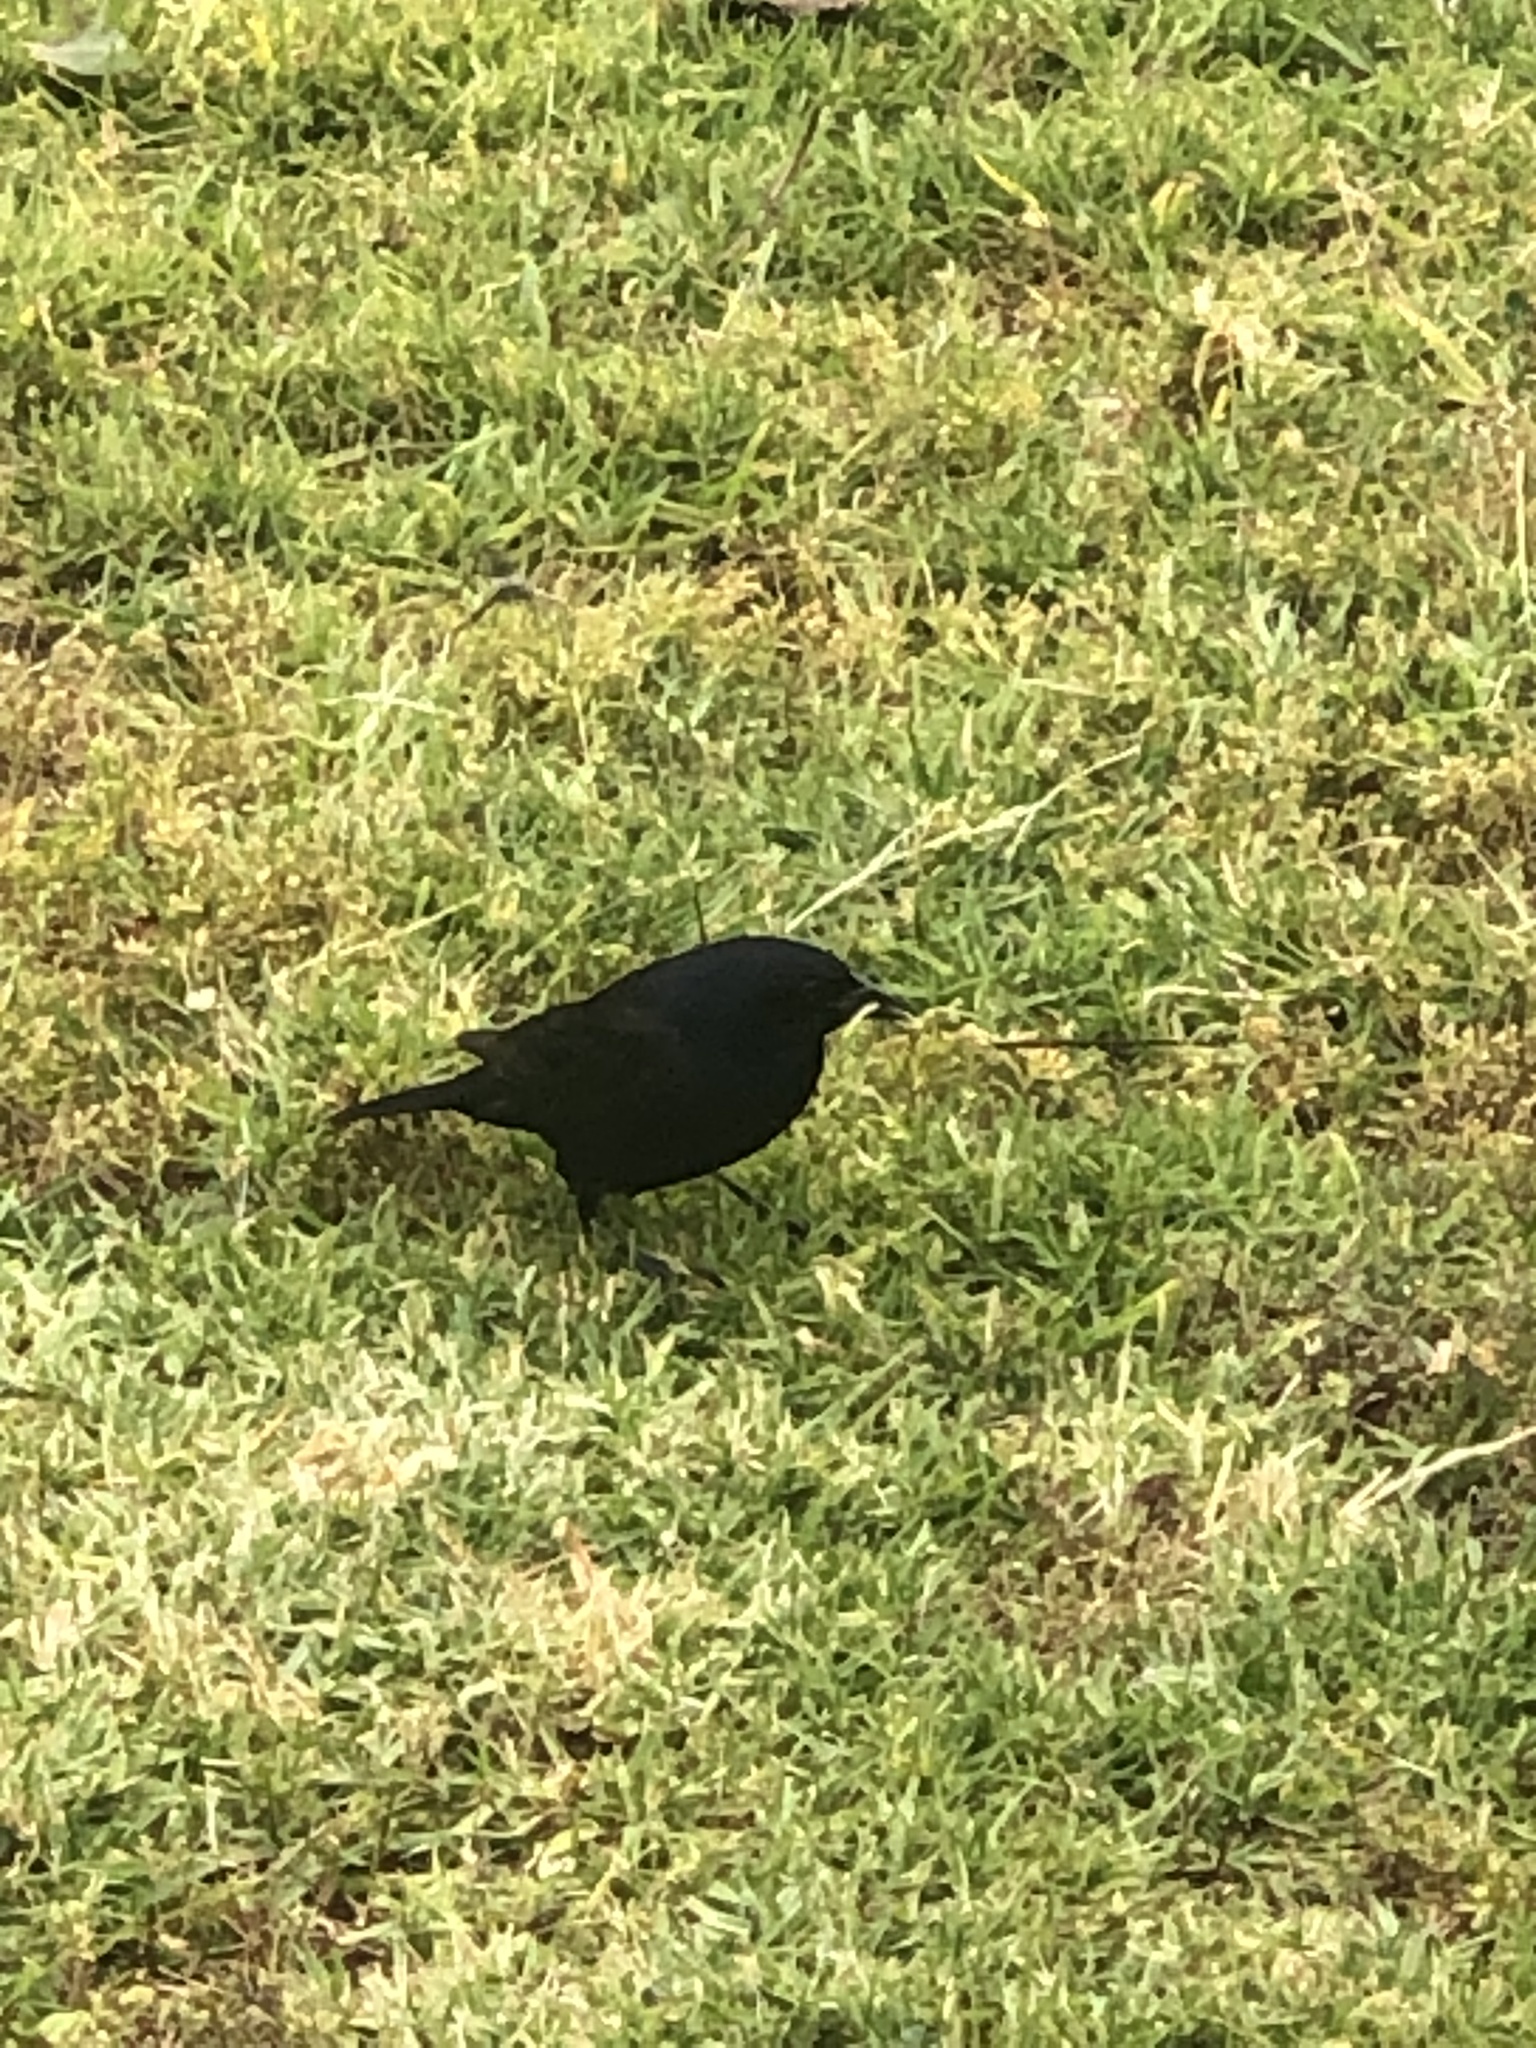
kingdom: Animalia
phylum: Chordata
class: Aves
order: Passeriformes
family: Icteridae
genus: Molothrus
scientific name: Molothrus bonariensis
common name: Shiny cowbird
